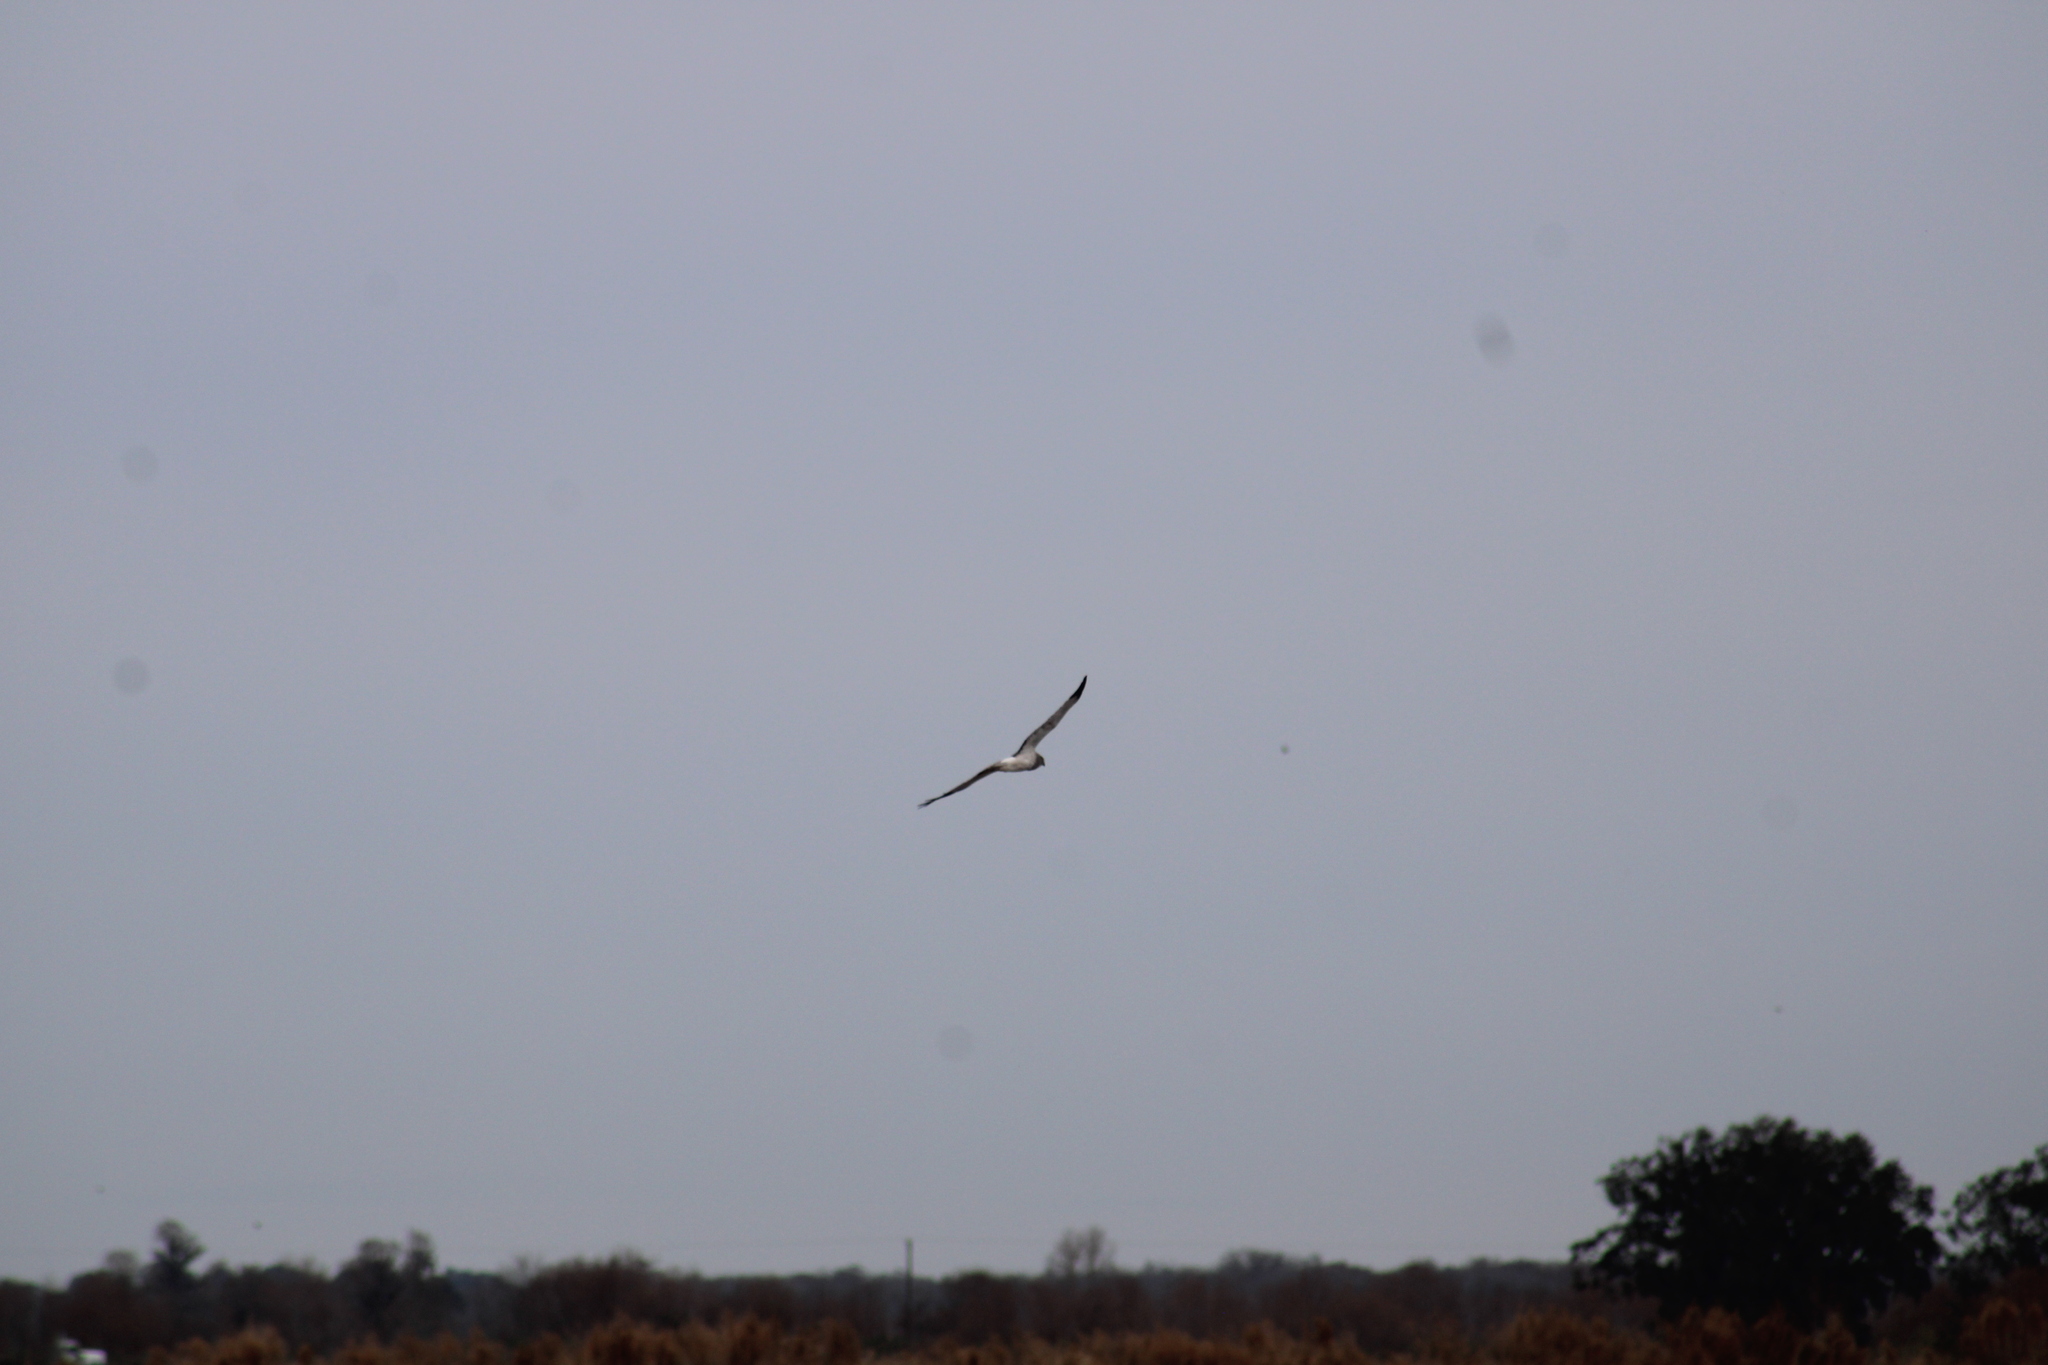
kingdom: Animalia
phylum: Chordata
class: Aves
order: Accipitriformes
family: Accipitridae
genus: Circus
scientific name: Circus cyaneus
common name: Hen harrier
